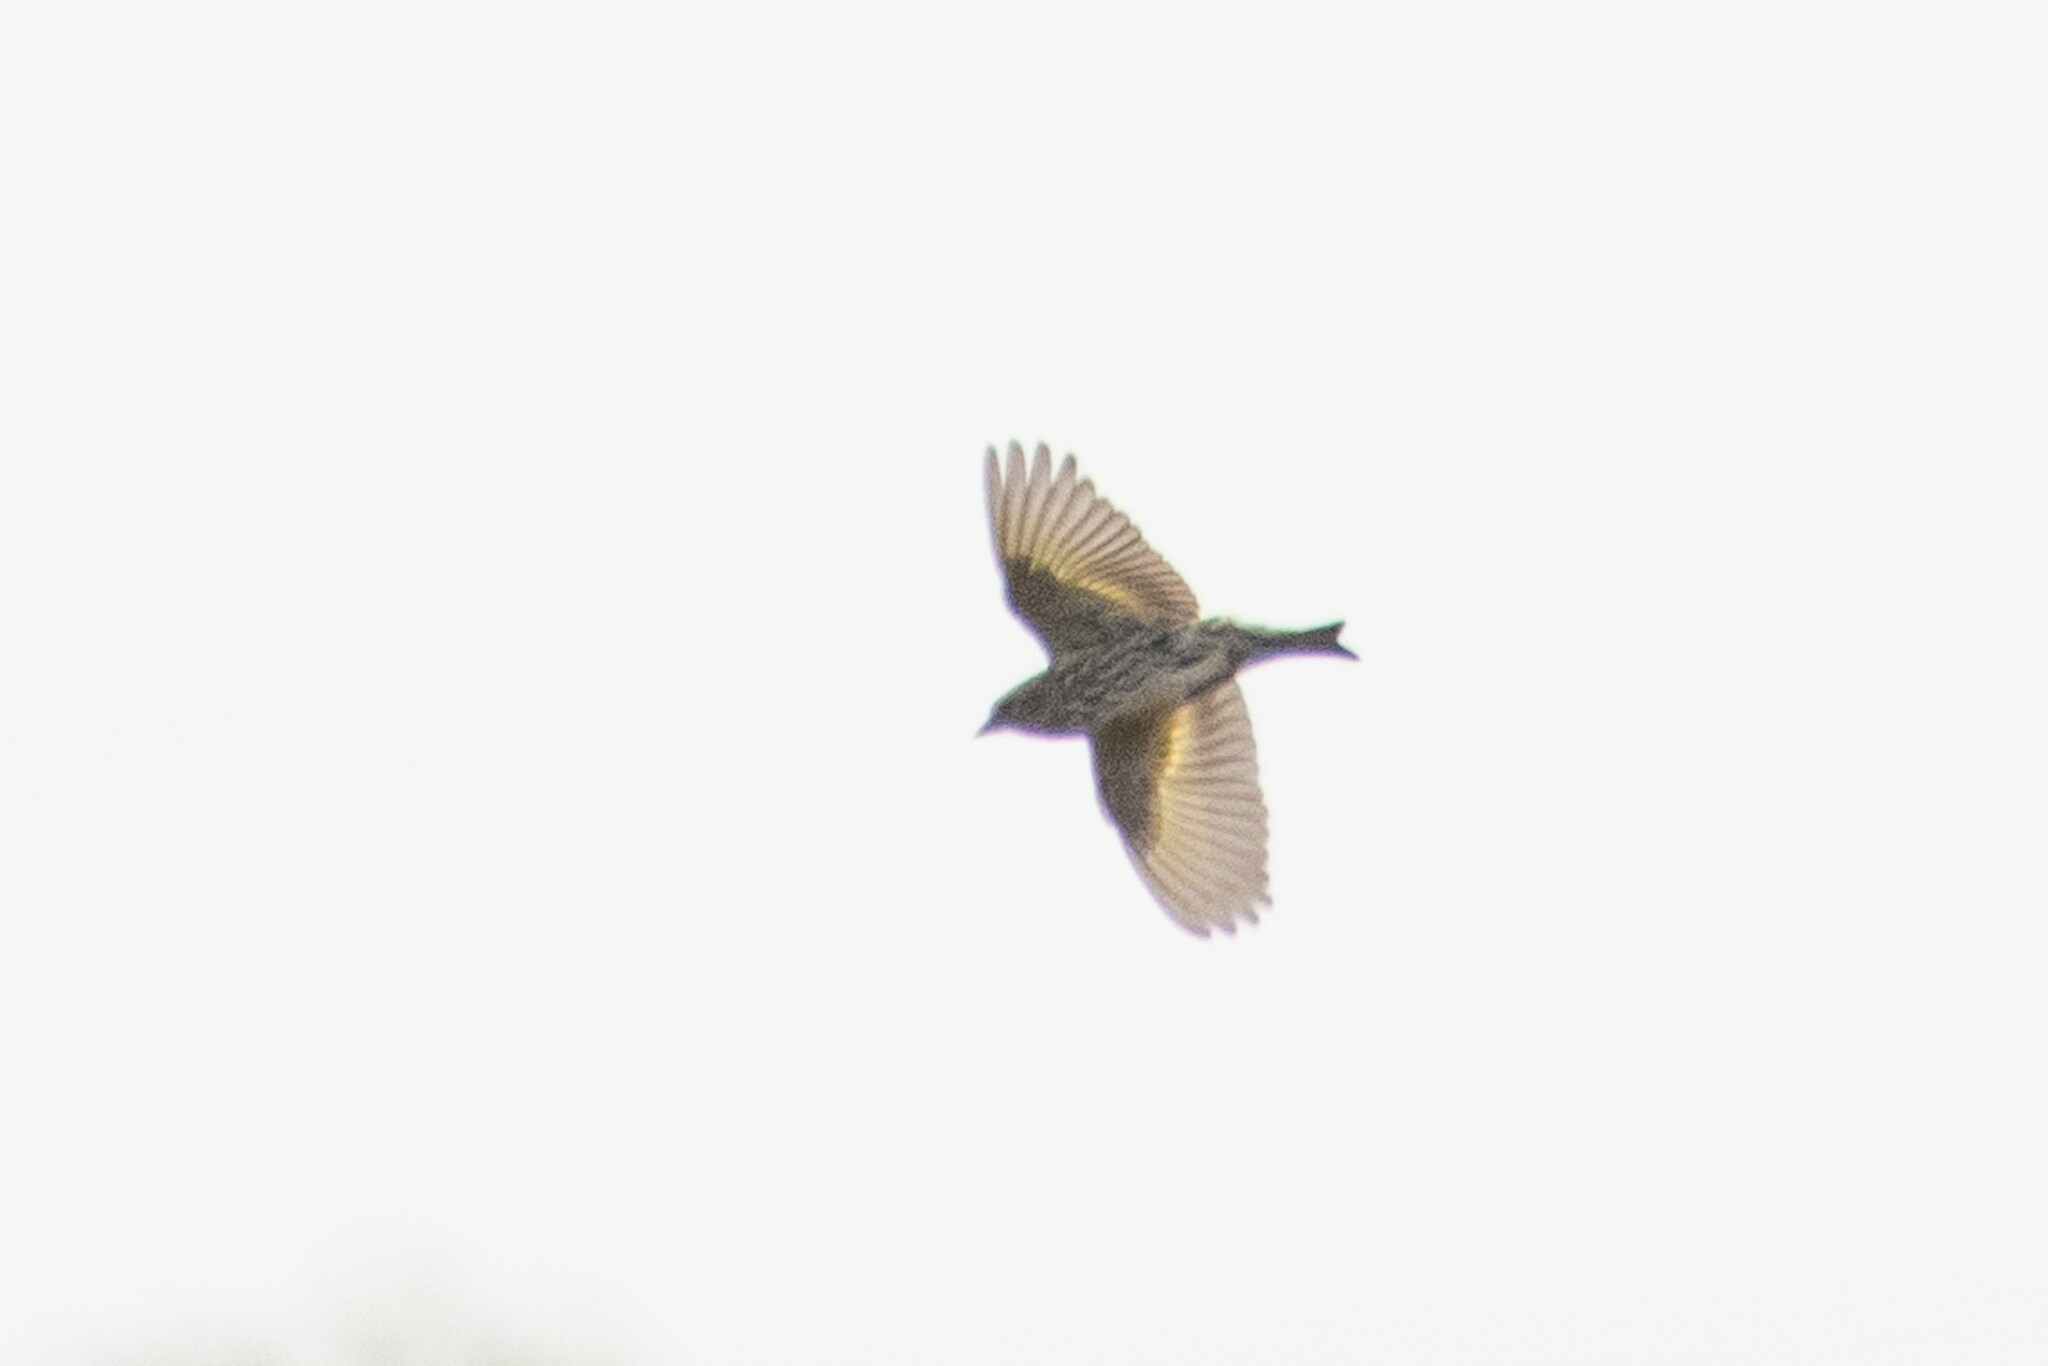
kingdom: Animalia
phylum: Chordata
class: Aves
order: Passeriformes
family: Fringillidae
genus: Spinus
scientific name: Spinus pinus
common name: Pine siskin
